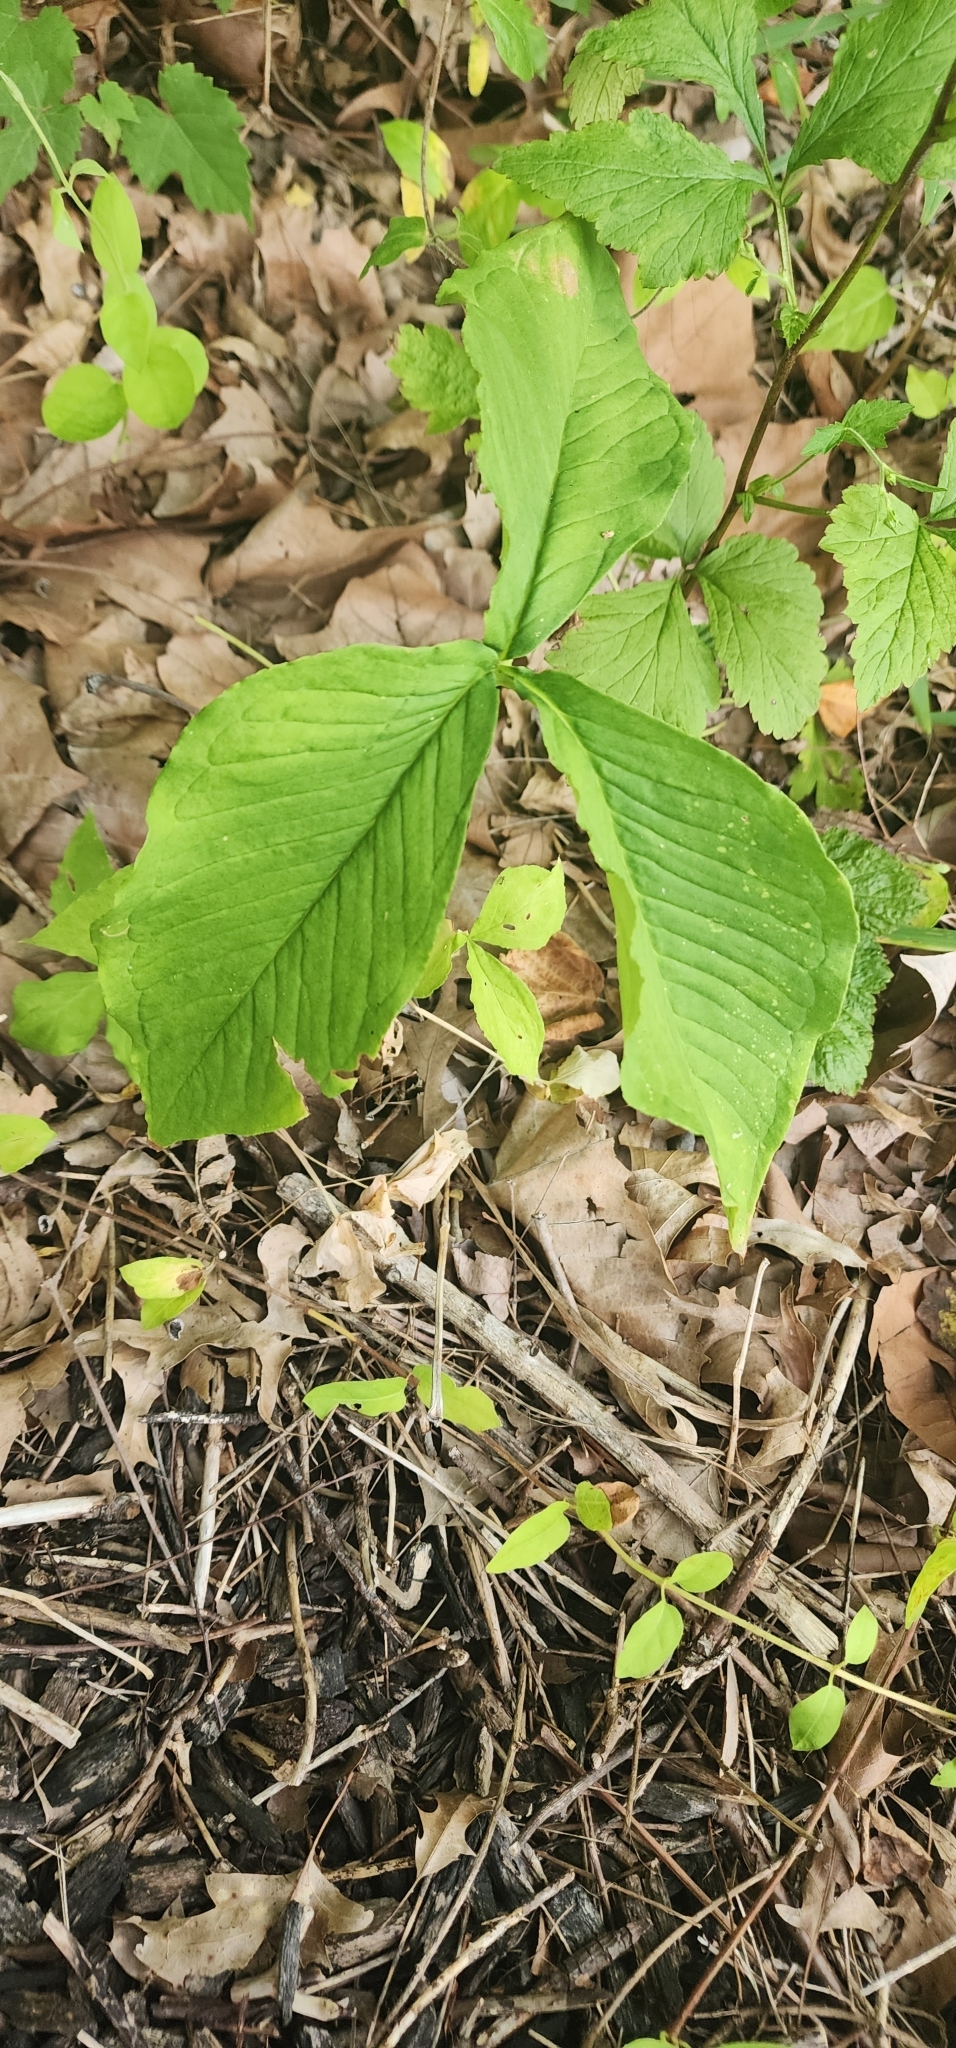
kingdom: Plantae
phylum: Tracheophyta
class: Liliopsida
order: Alismatales
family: Araceae
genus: Arisaema
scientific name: Arisaema triphyllum
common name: Jack-in-the-pulpit
